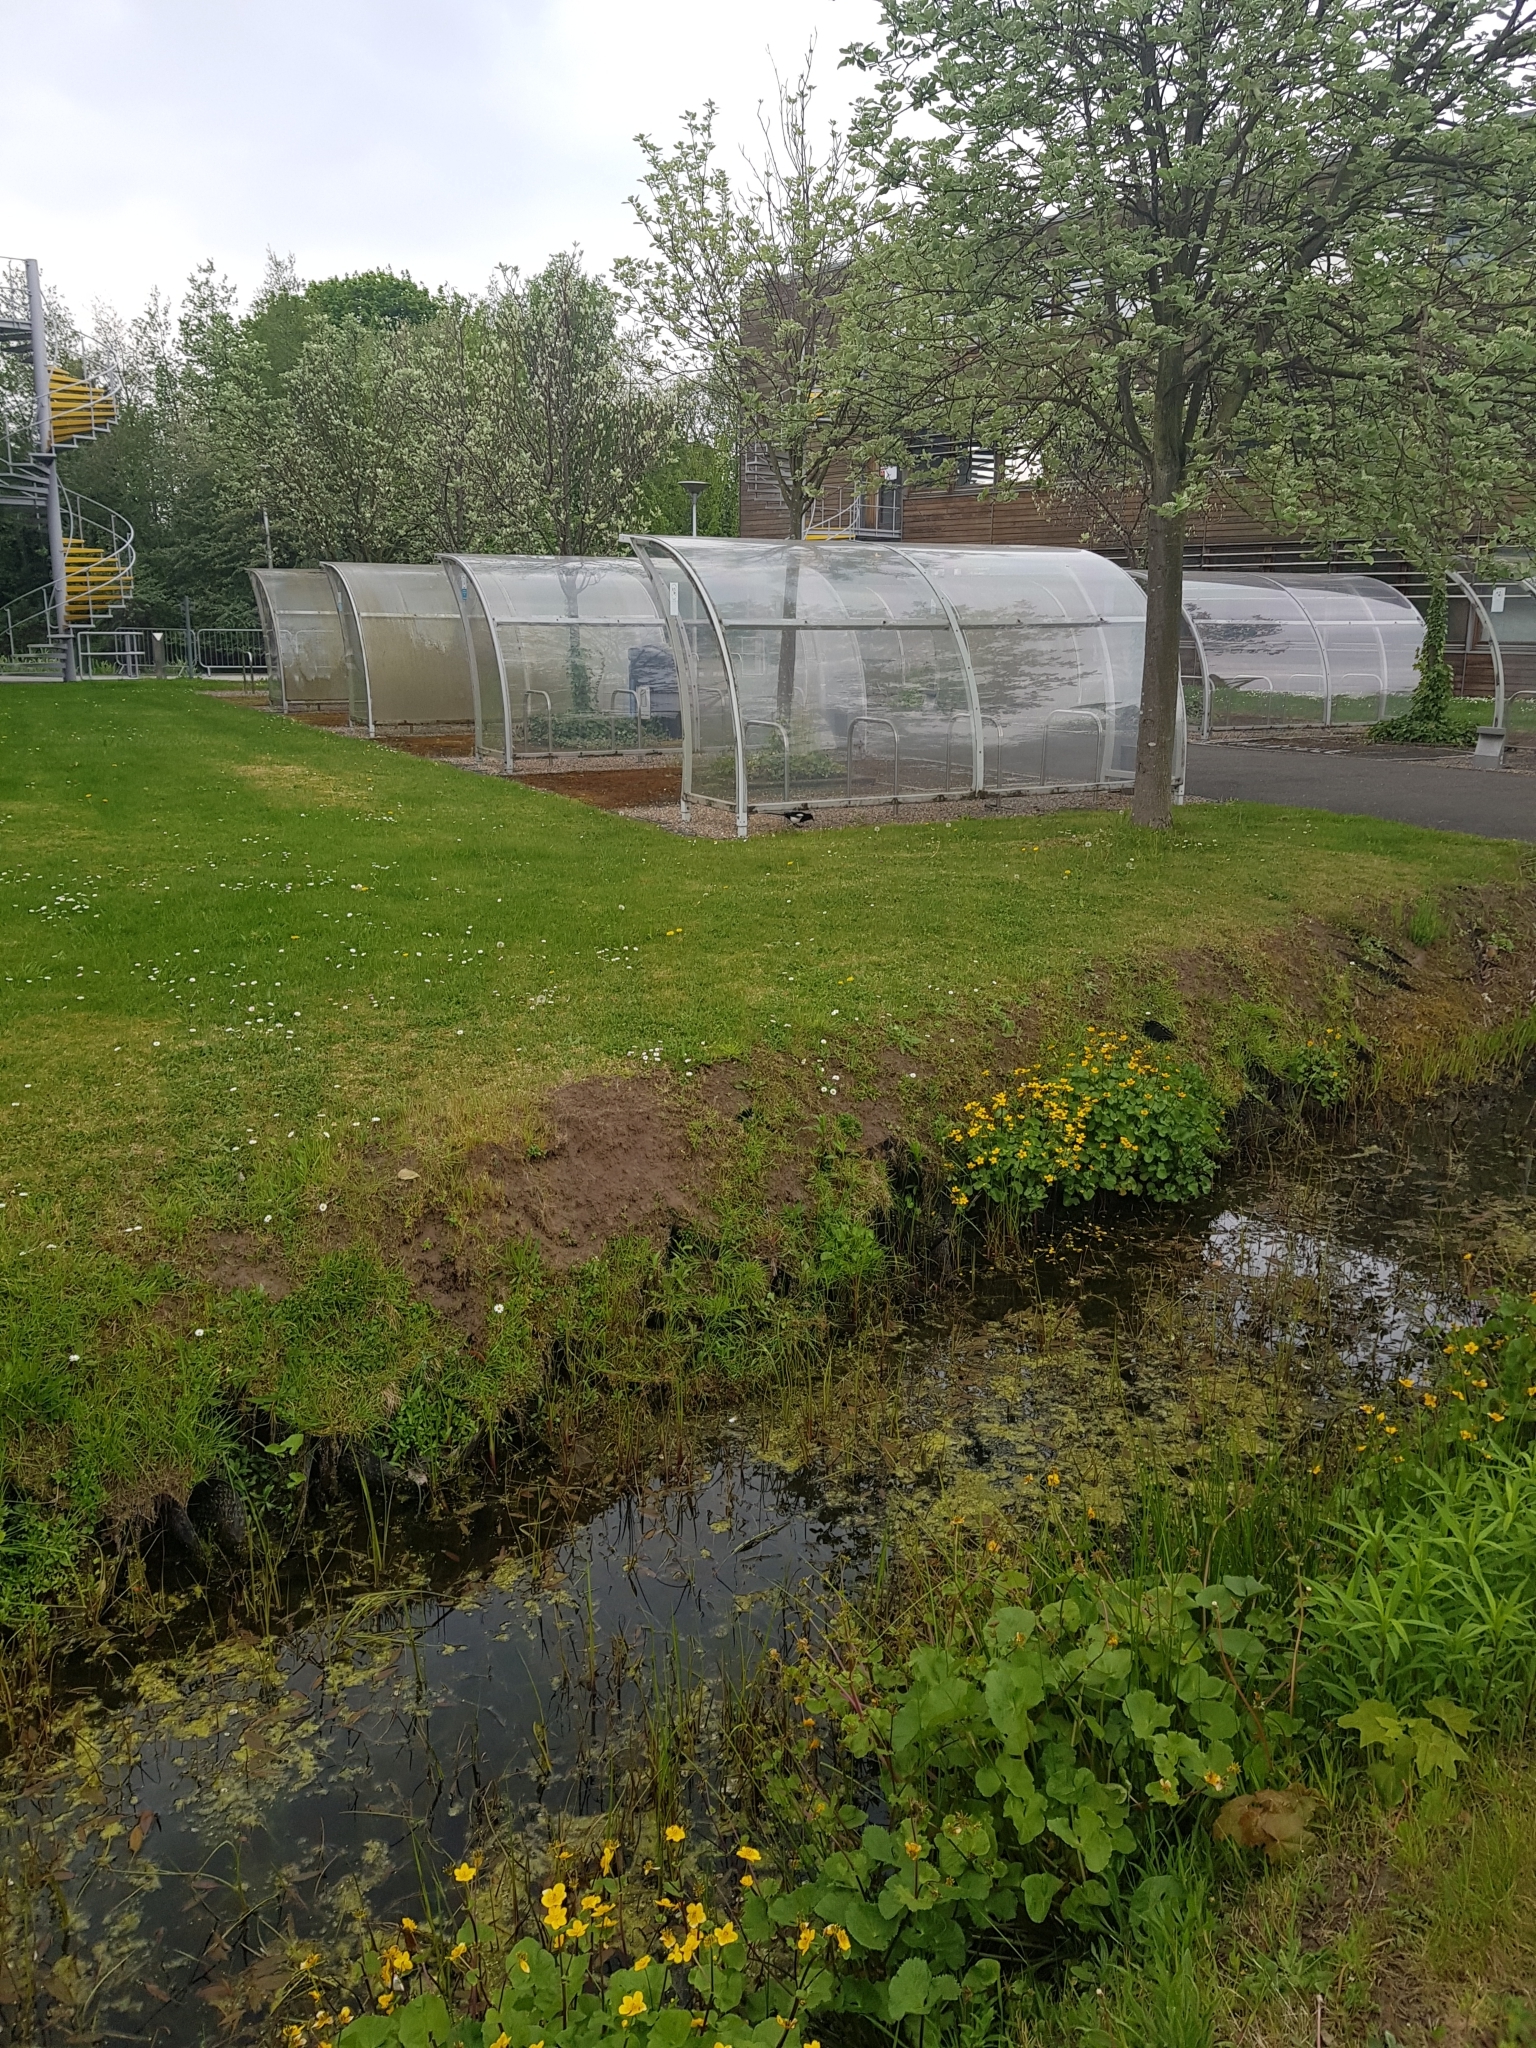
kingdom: Animalia
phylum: Chordata
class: Aves
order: Passeriformes
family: Corvidae
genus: Pica
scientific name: Pica pica
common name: Eurasian magpie
